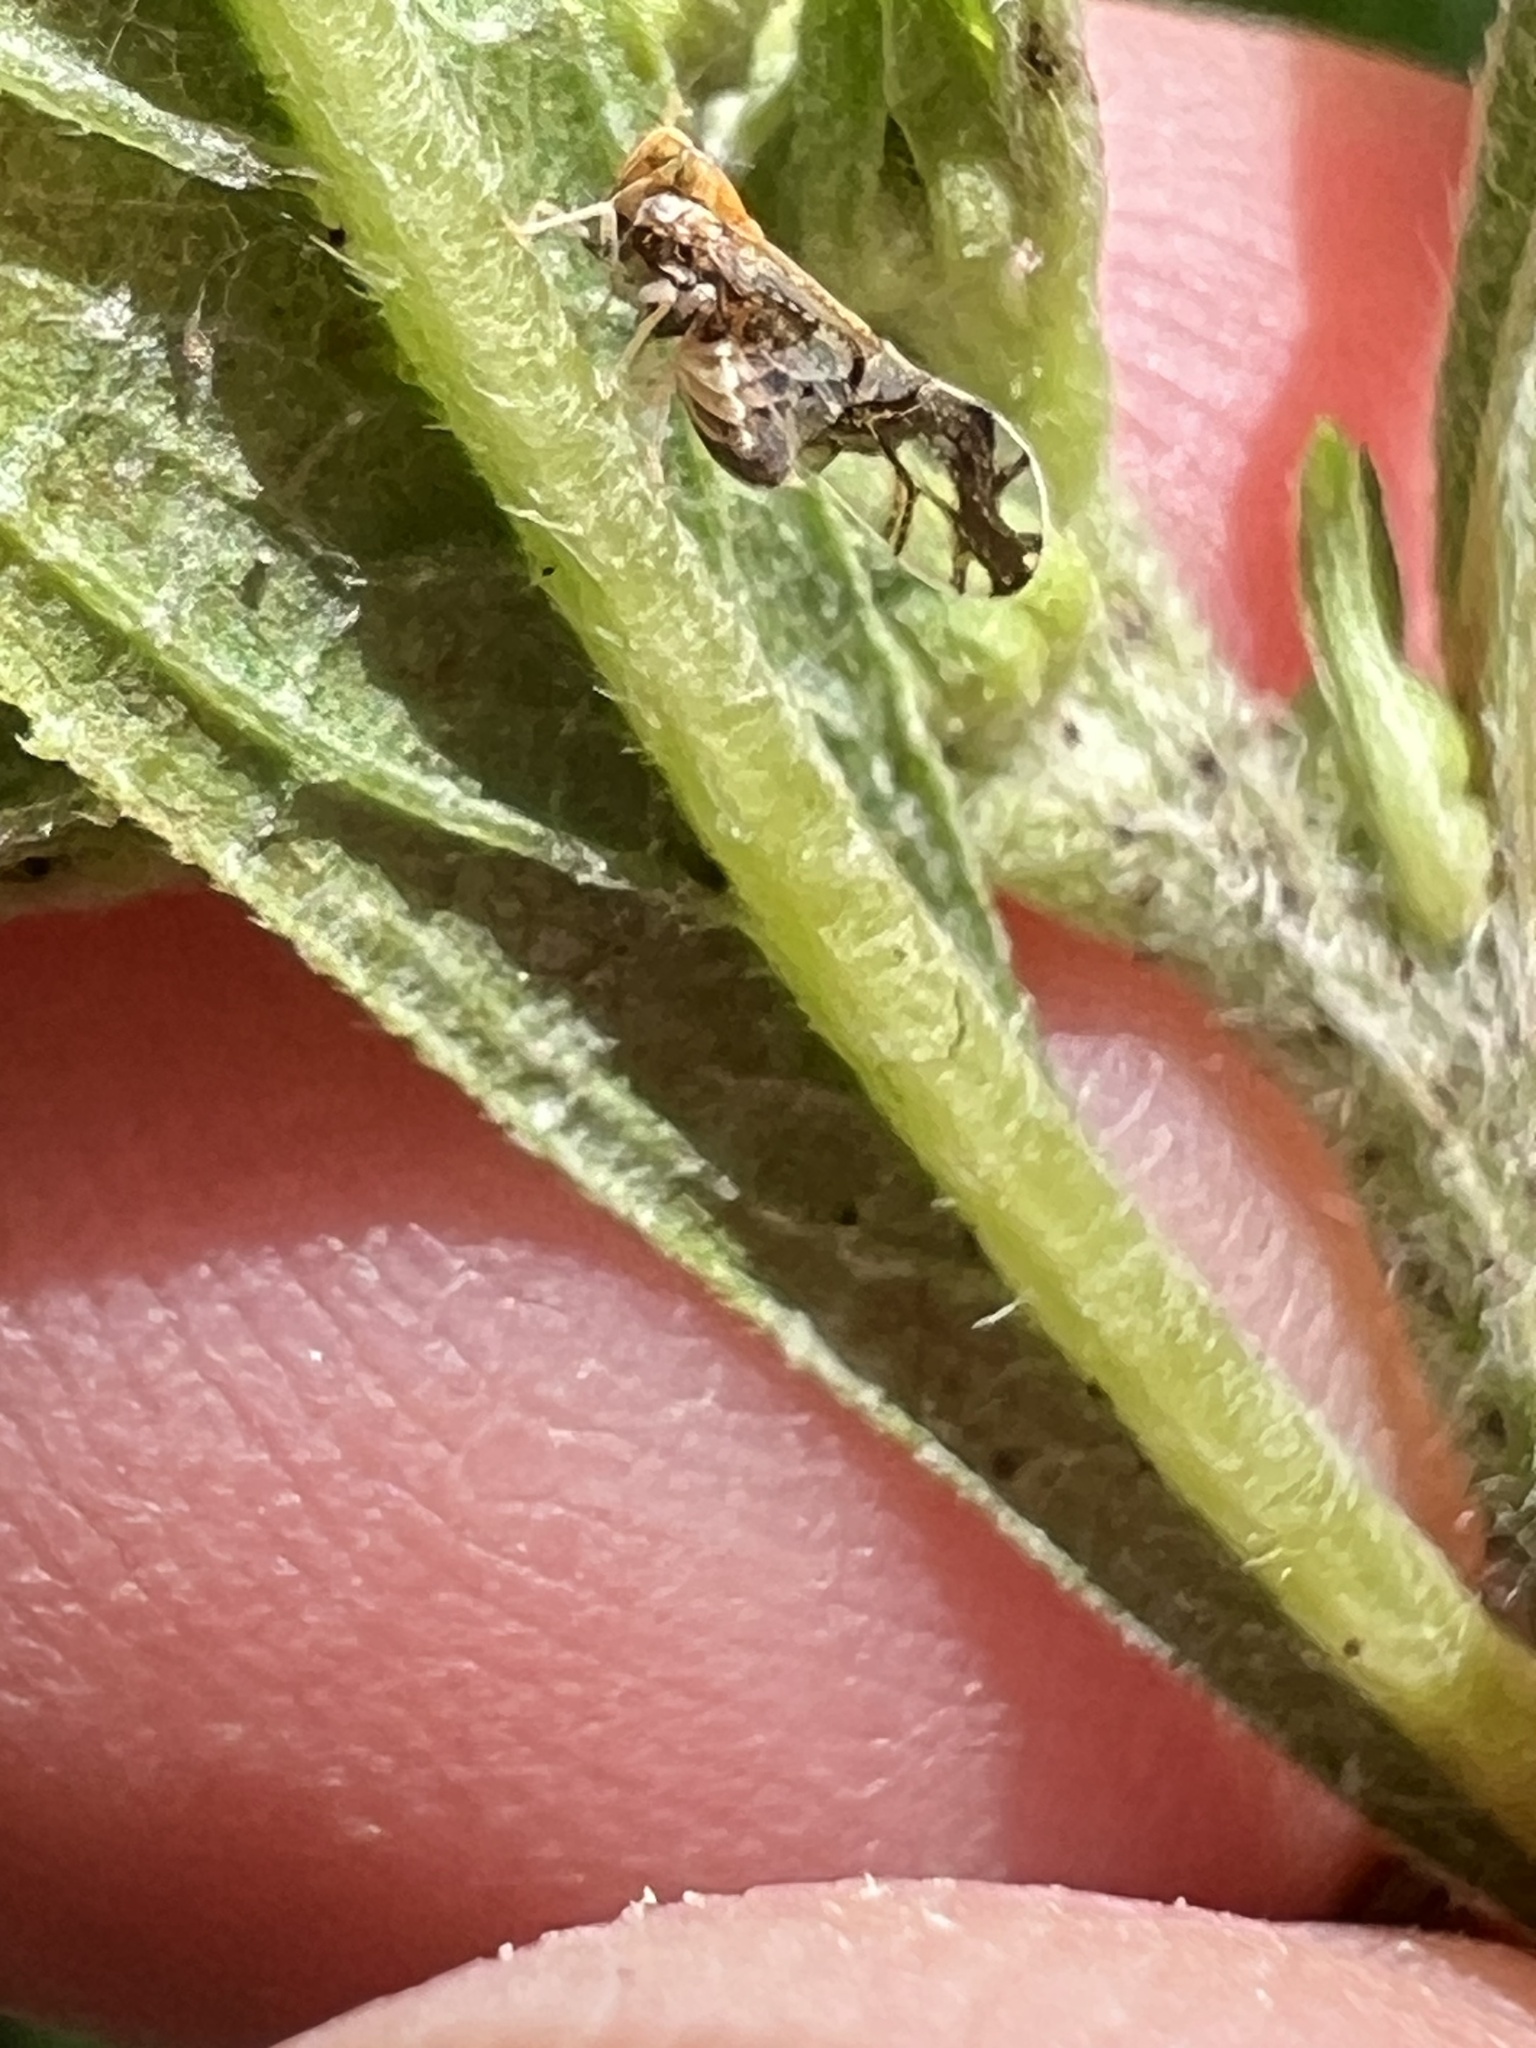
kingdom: Animalia
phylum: Arthropoda
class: Insecta
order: Hemiptera
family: Delphacidae
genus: Liburniella
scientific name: Liburniella ornata
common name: Ornate planthopper
